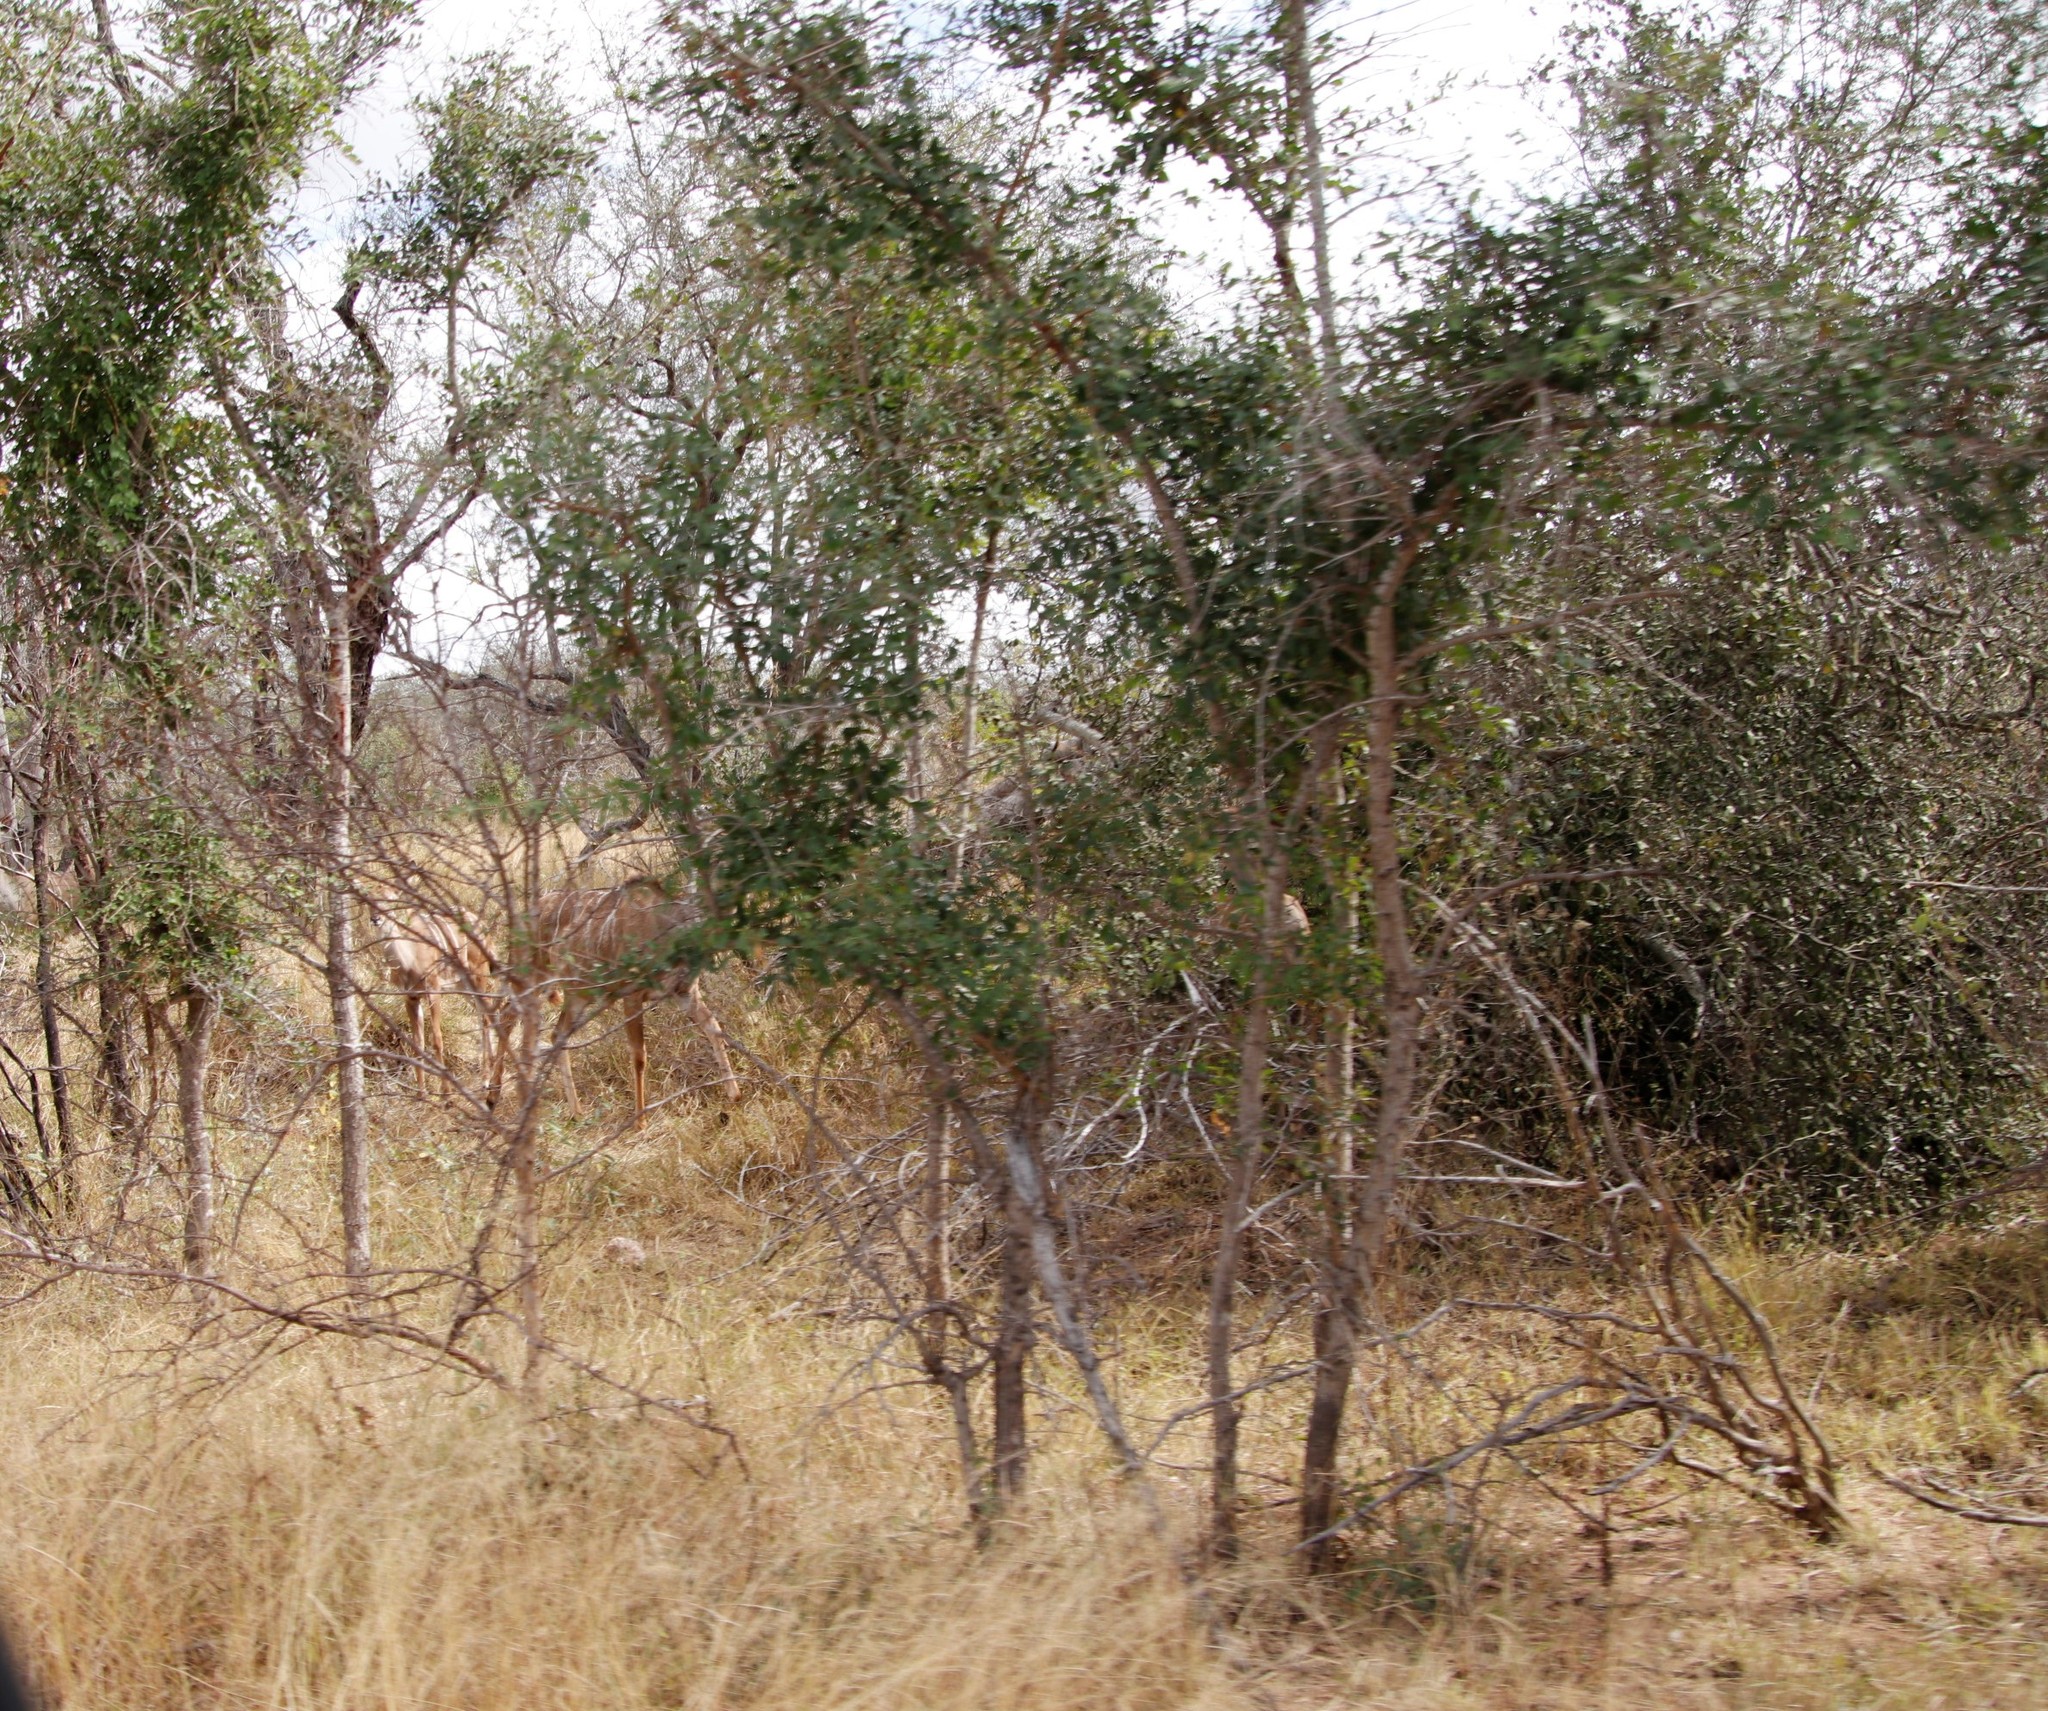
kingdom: Animalia
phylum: Chordata
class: Mammalia
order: Artiodactyla
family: Bovidae
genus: Tragelaphus
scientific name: Tragelaphus strepsiceros
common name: Greater kudu
